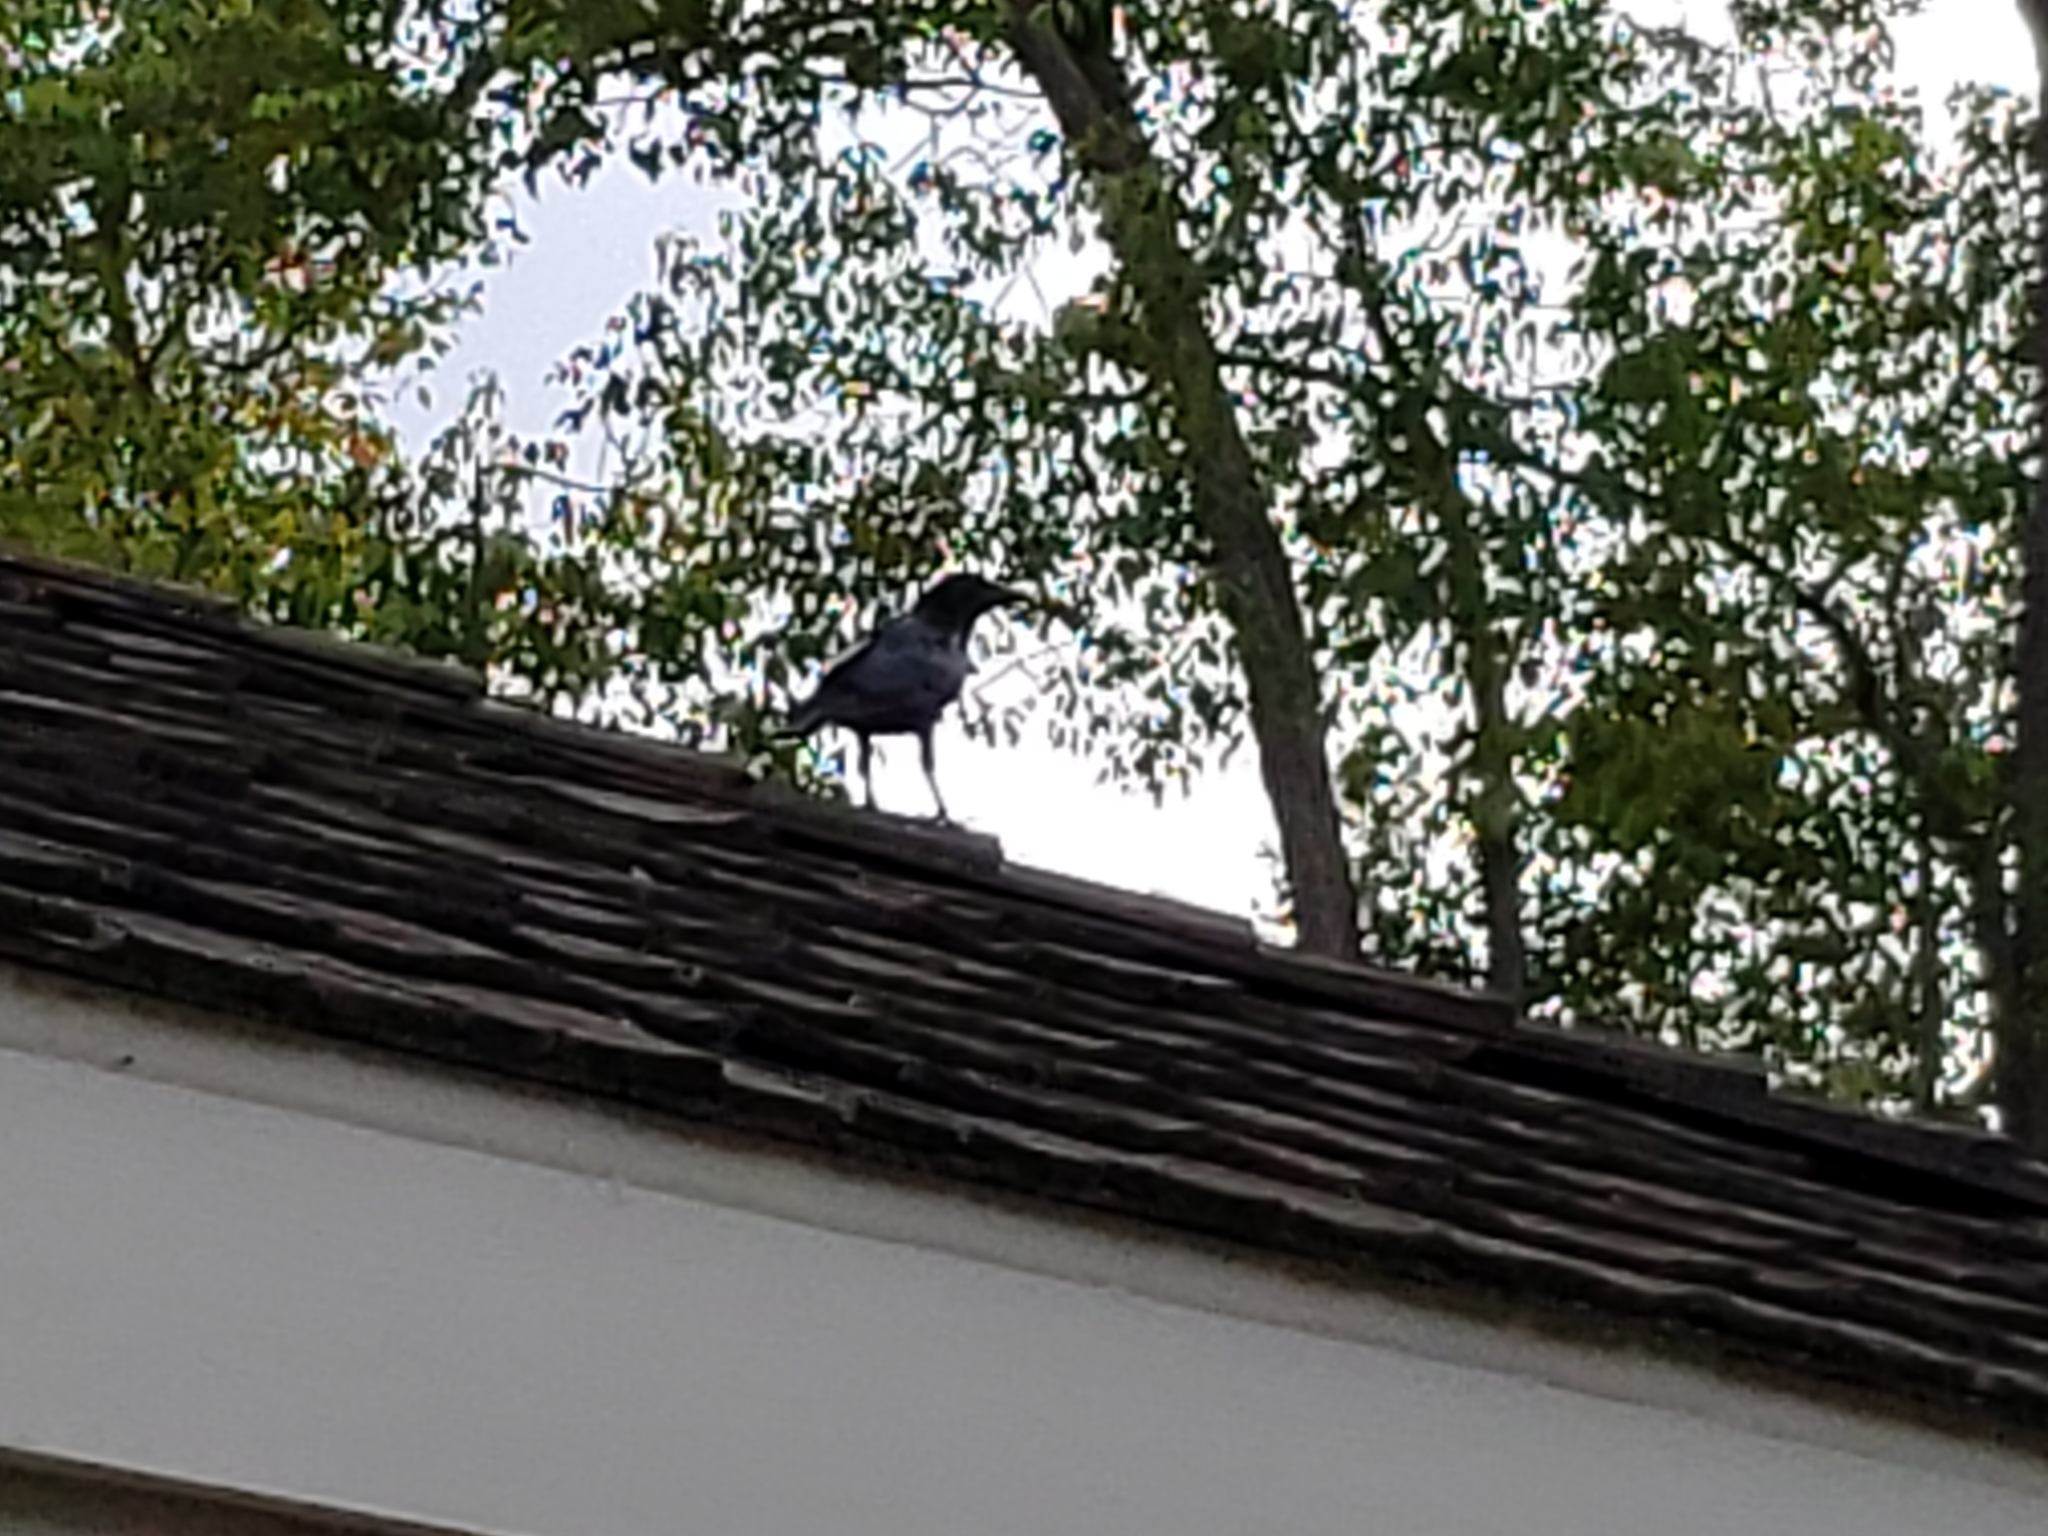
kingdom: Animalia
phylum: Chordata
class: Aves
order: Passeriformes
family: Corvidae
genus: Corvus
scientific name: Corvus brachyrhynchos
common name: American crow
